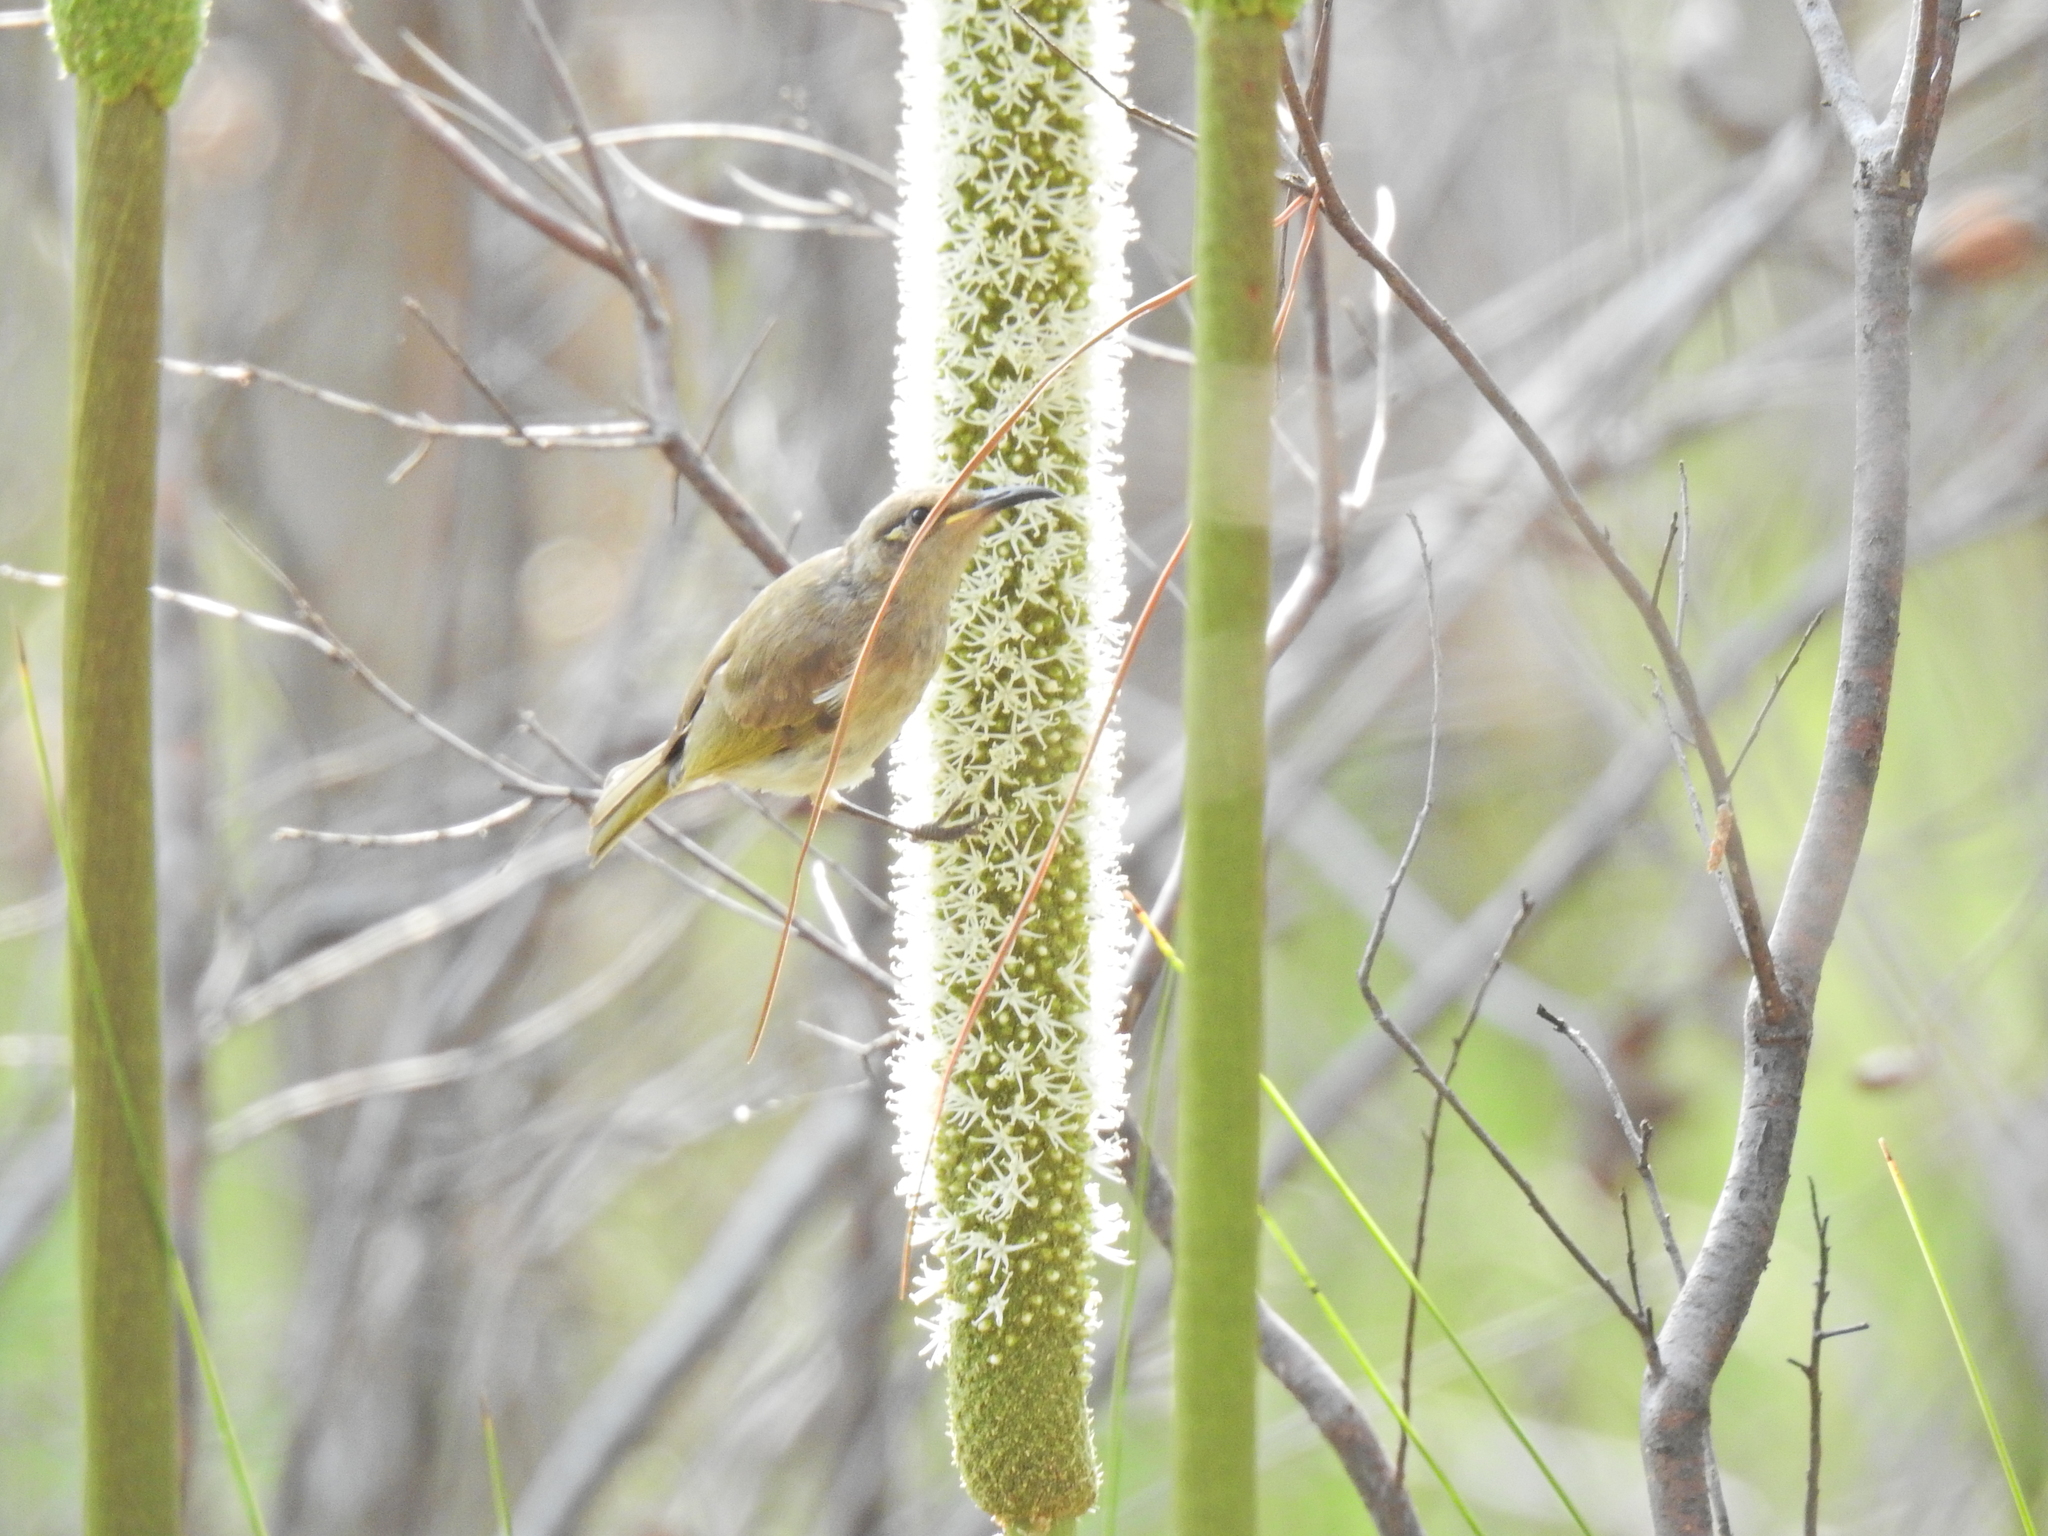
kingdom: Animalia
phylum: Chordata
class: Aves
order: Passeriformes
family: Meliphagidae
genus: Lichmera
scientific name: Lichmera indistincta
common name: Brown honeyeater
